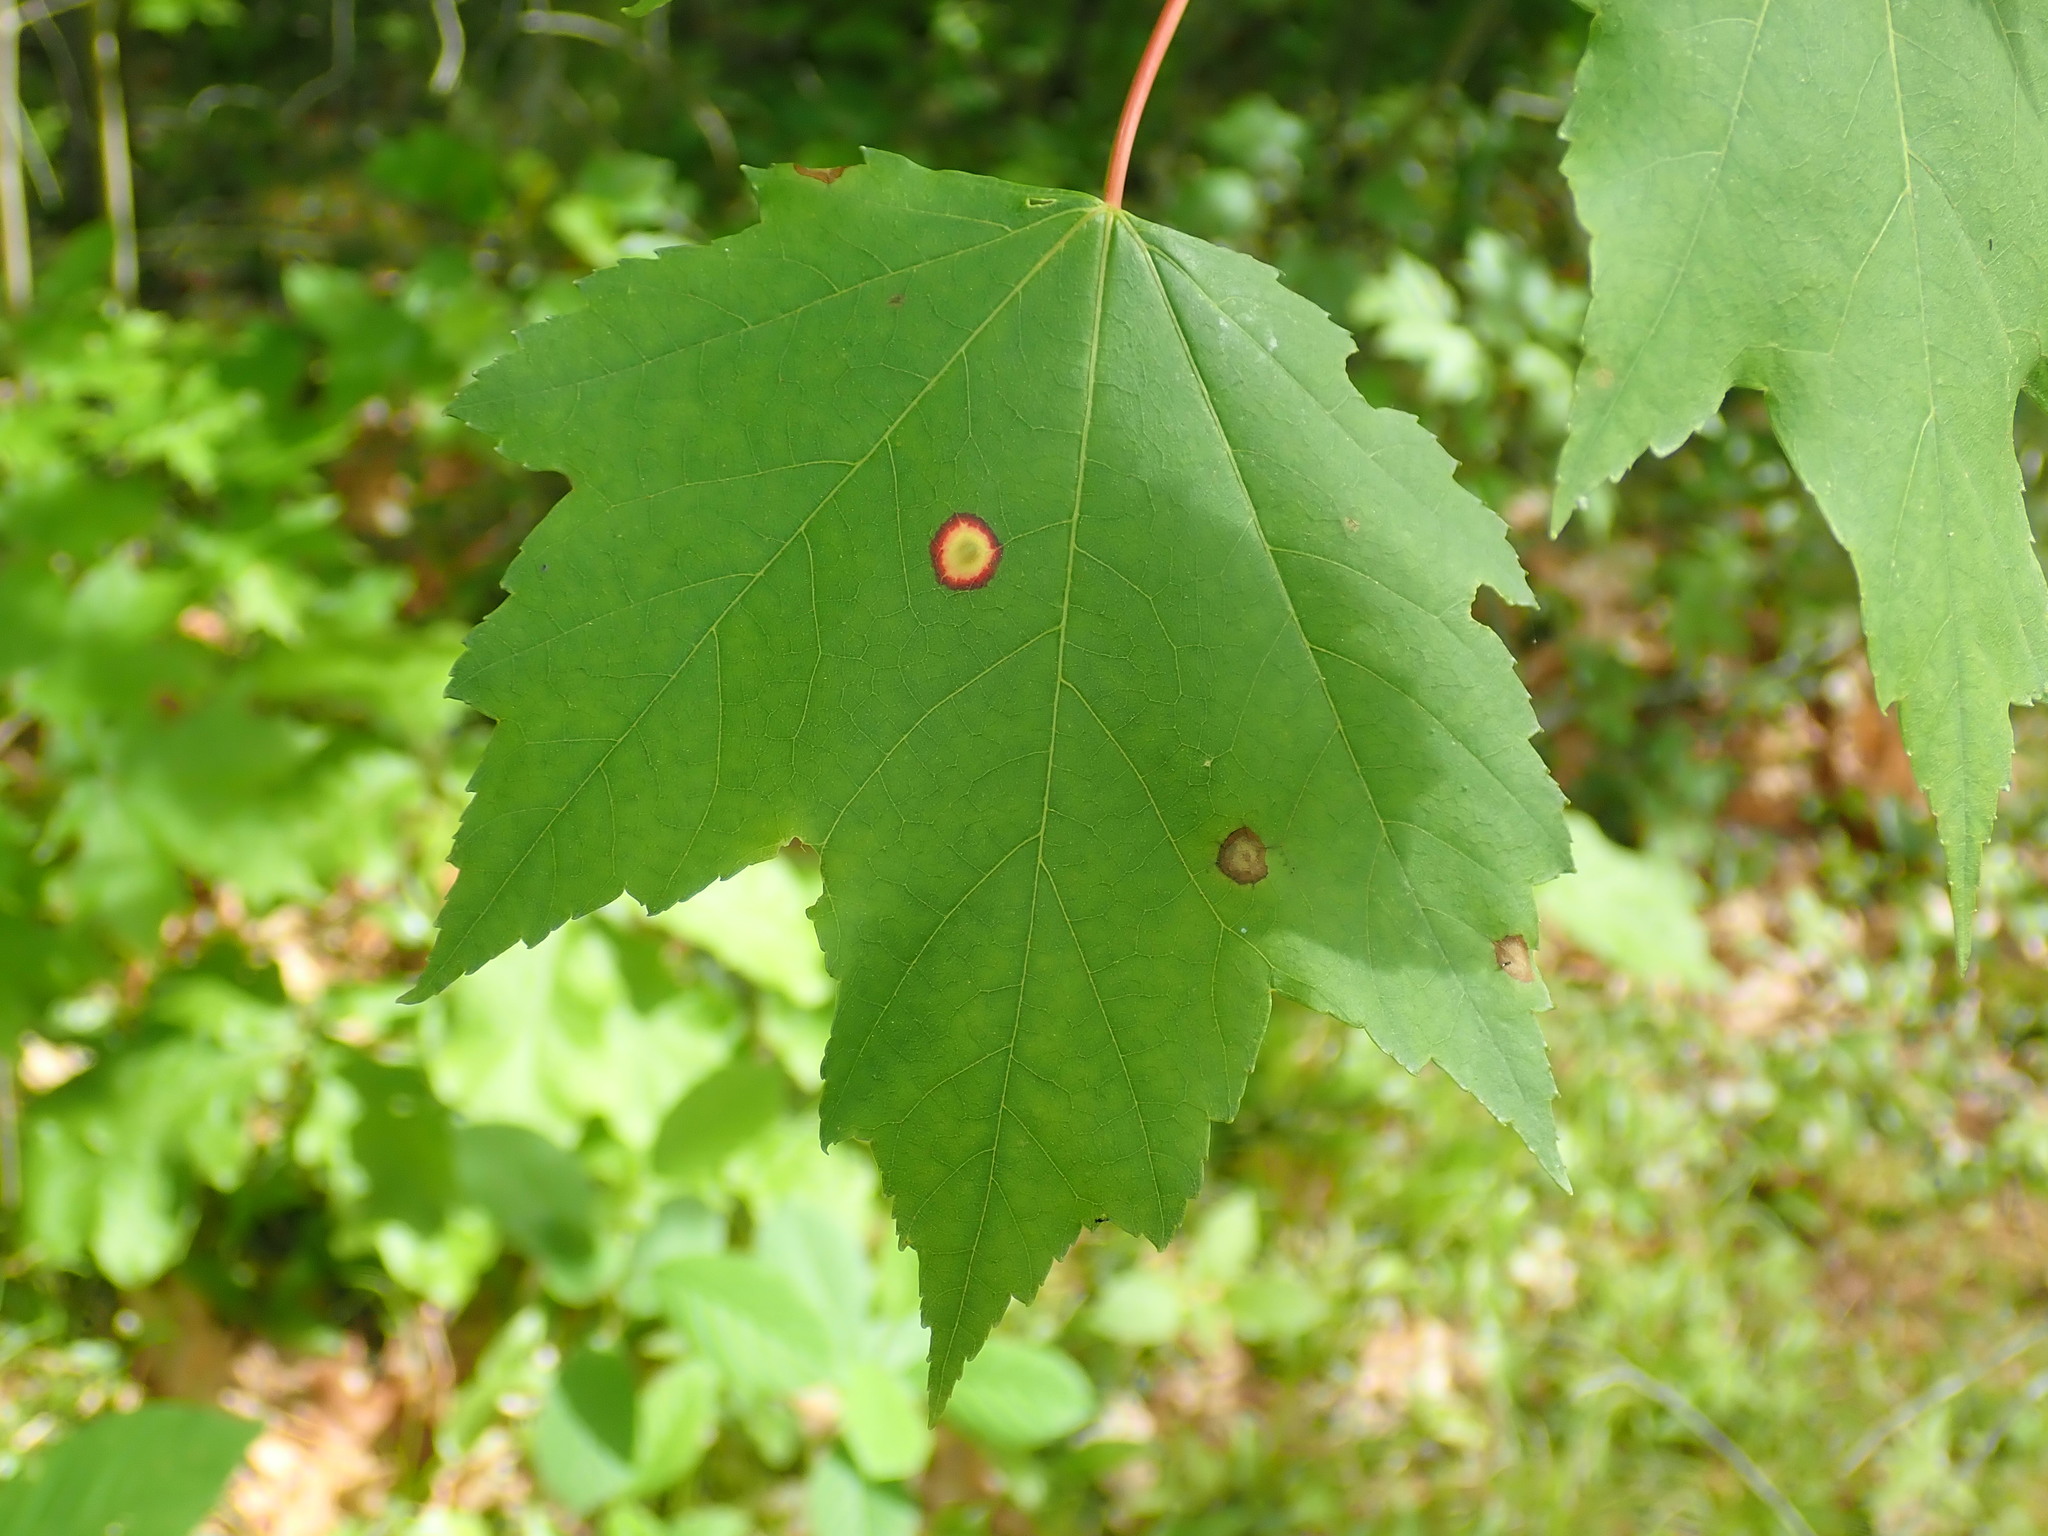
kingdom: Animalia
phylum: Arthropoda
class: Insecta
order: Diptera
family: Cecidomyiidae
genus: Acericecis
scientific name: Acericecis ocellaris
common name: Ocellate gall midge
